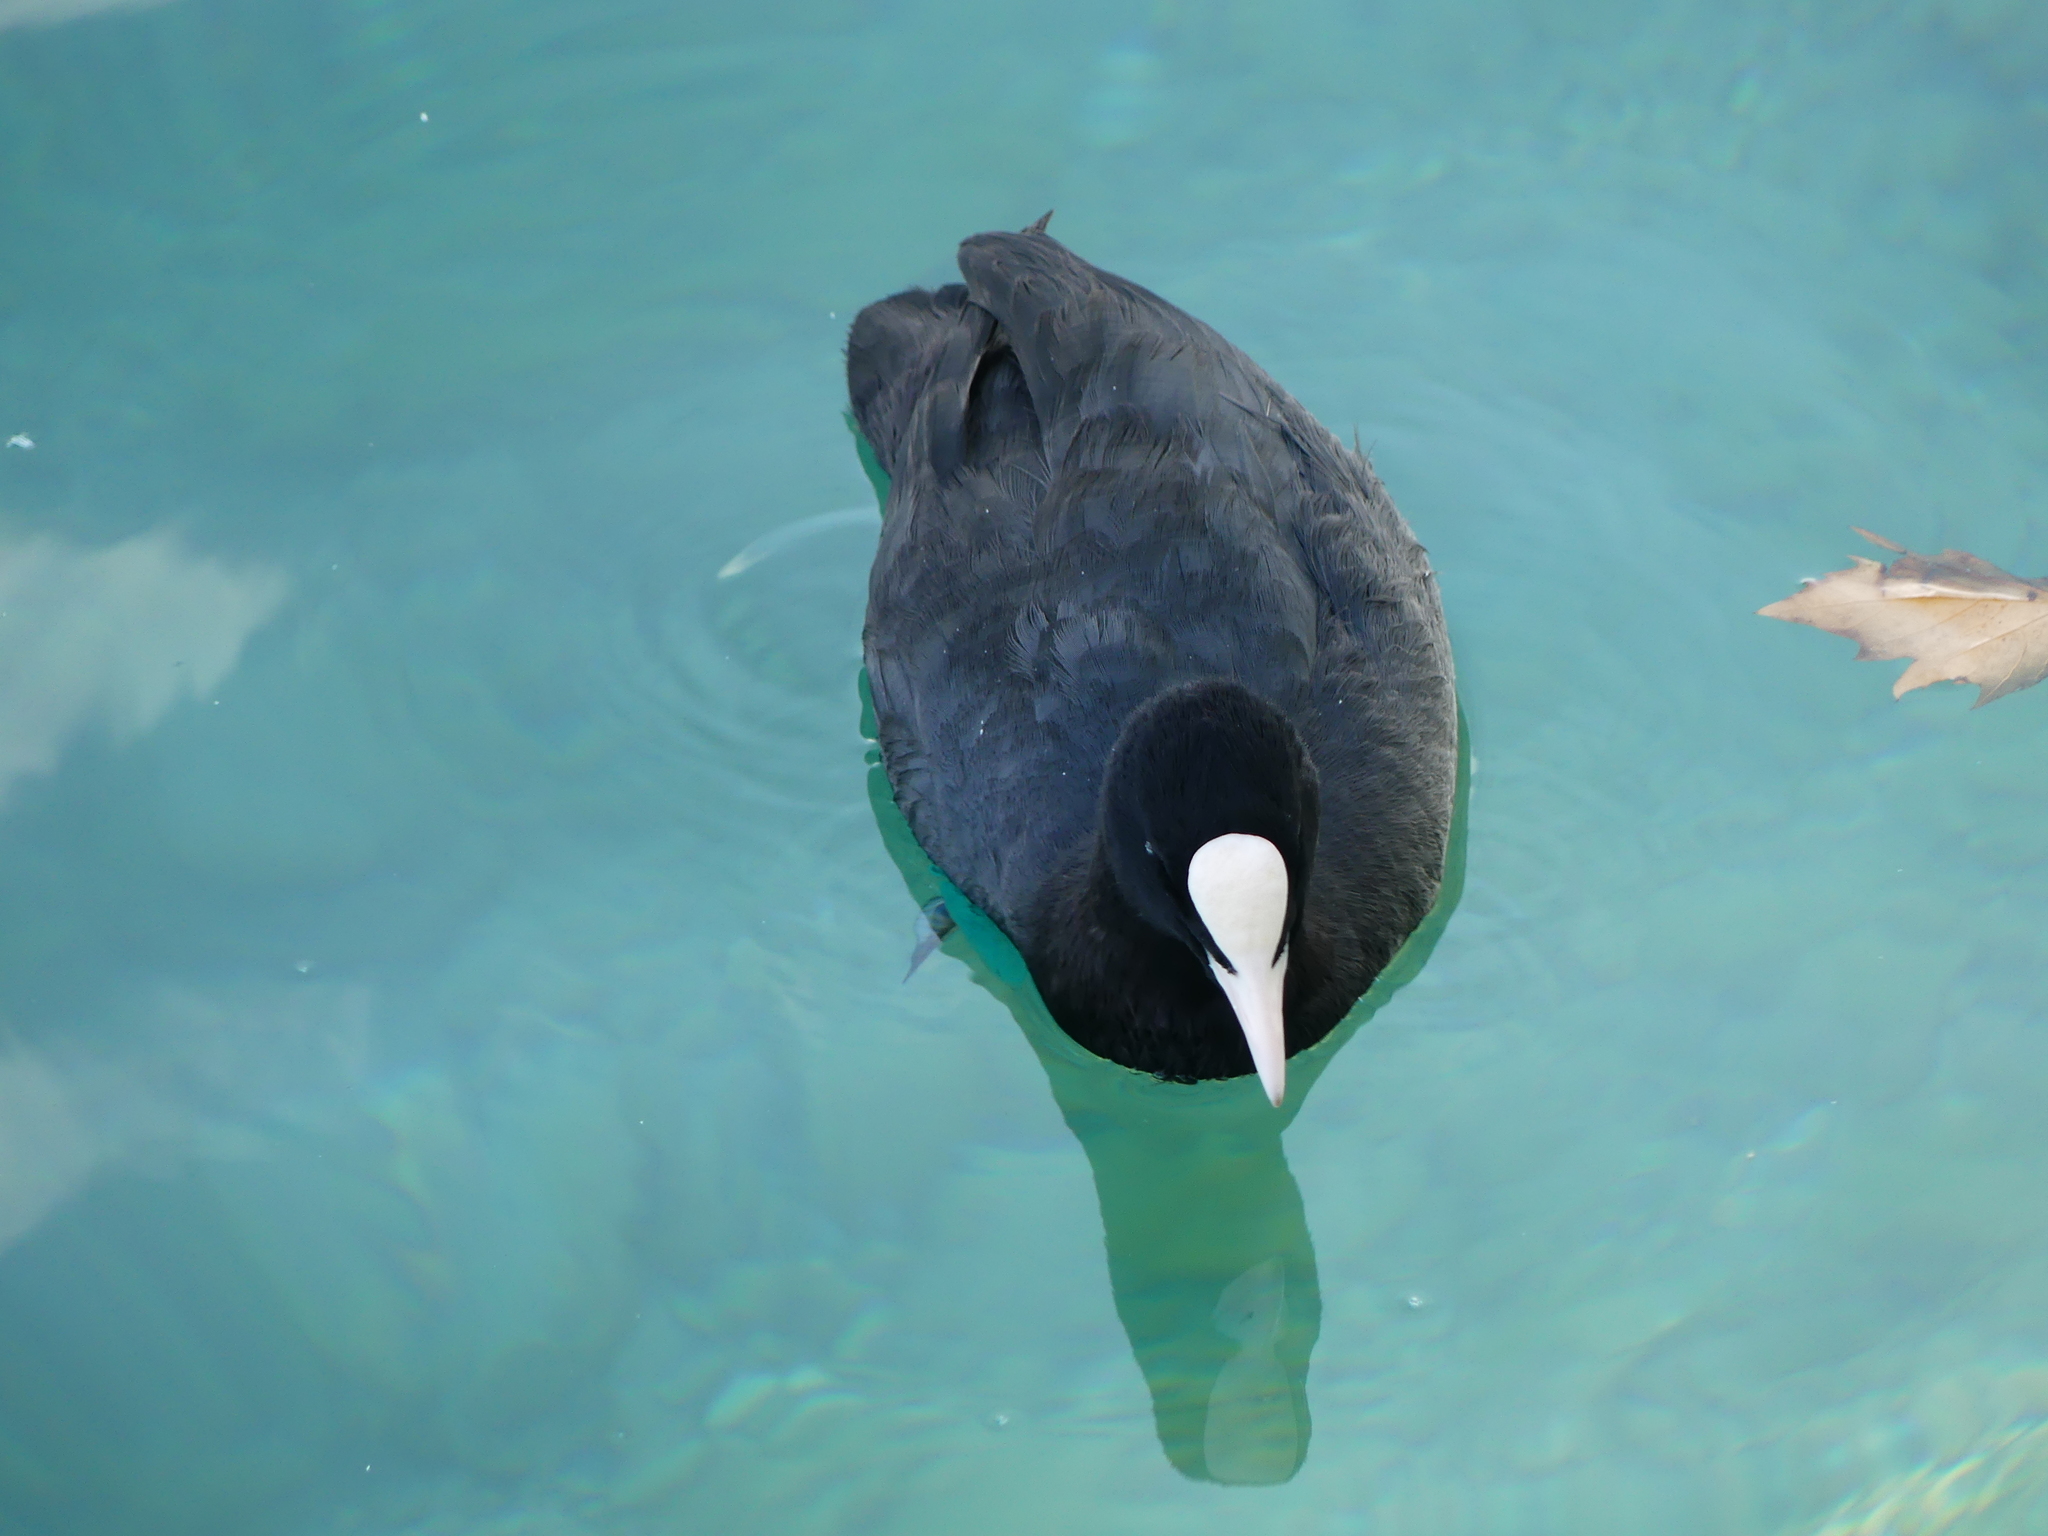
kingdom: Animalia
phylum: Chordata
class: Aves
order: Gruiformes
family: Rallidae
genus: Fulica
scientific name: Fulica atra
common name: Eurasian coot
